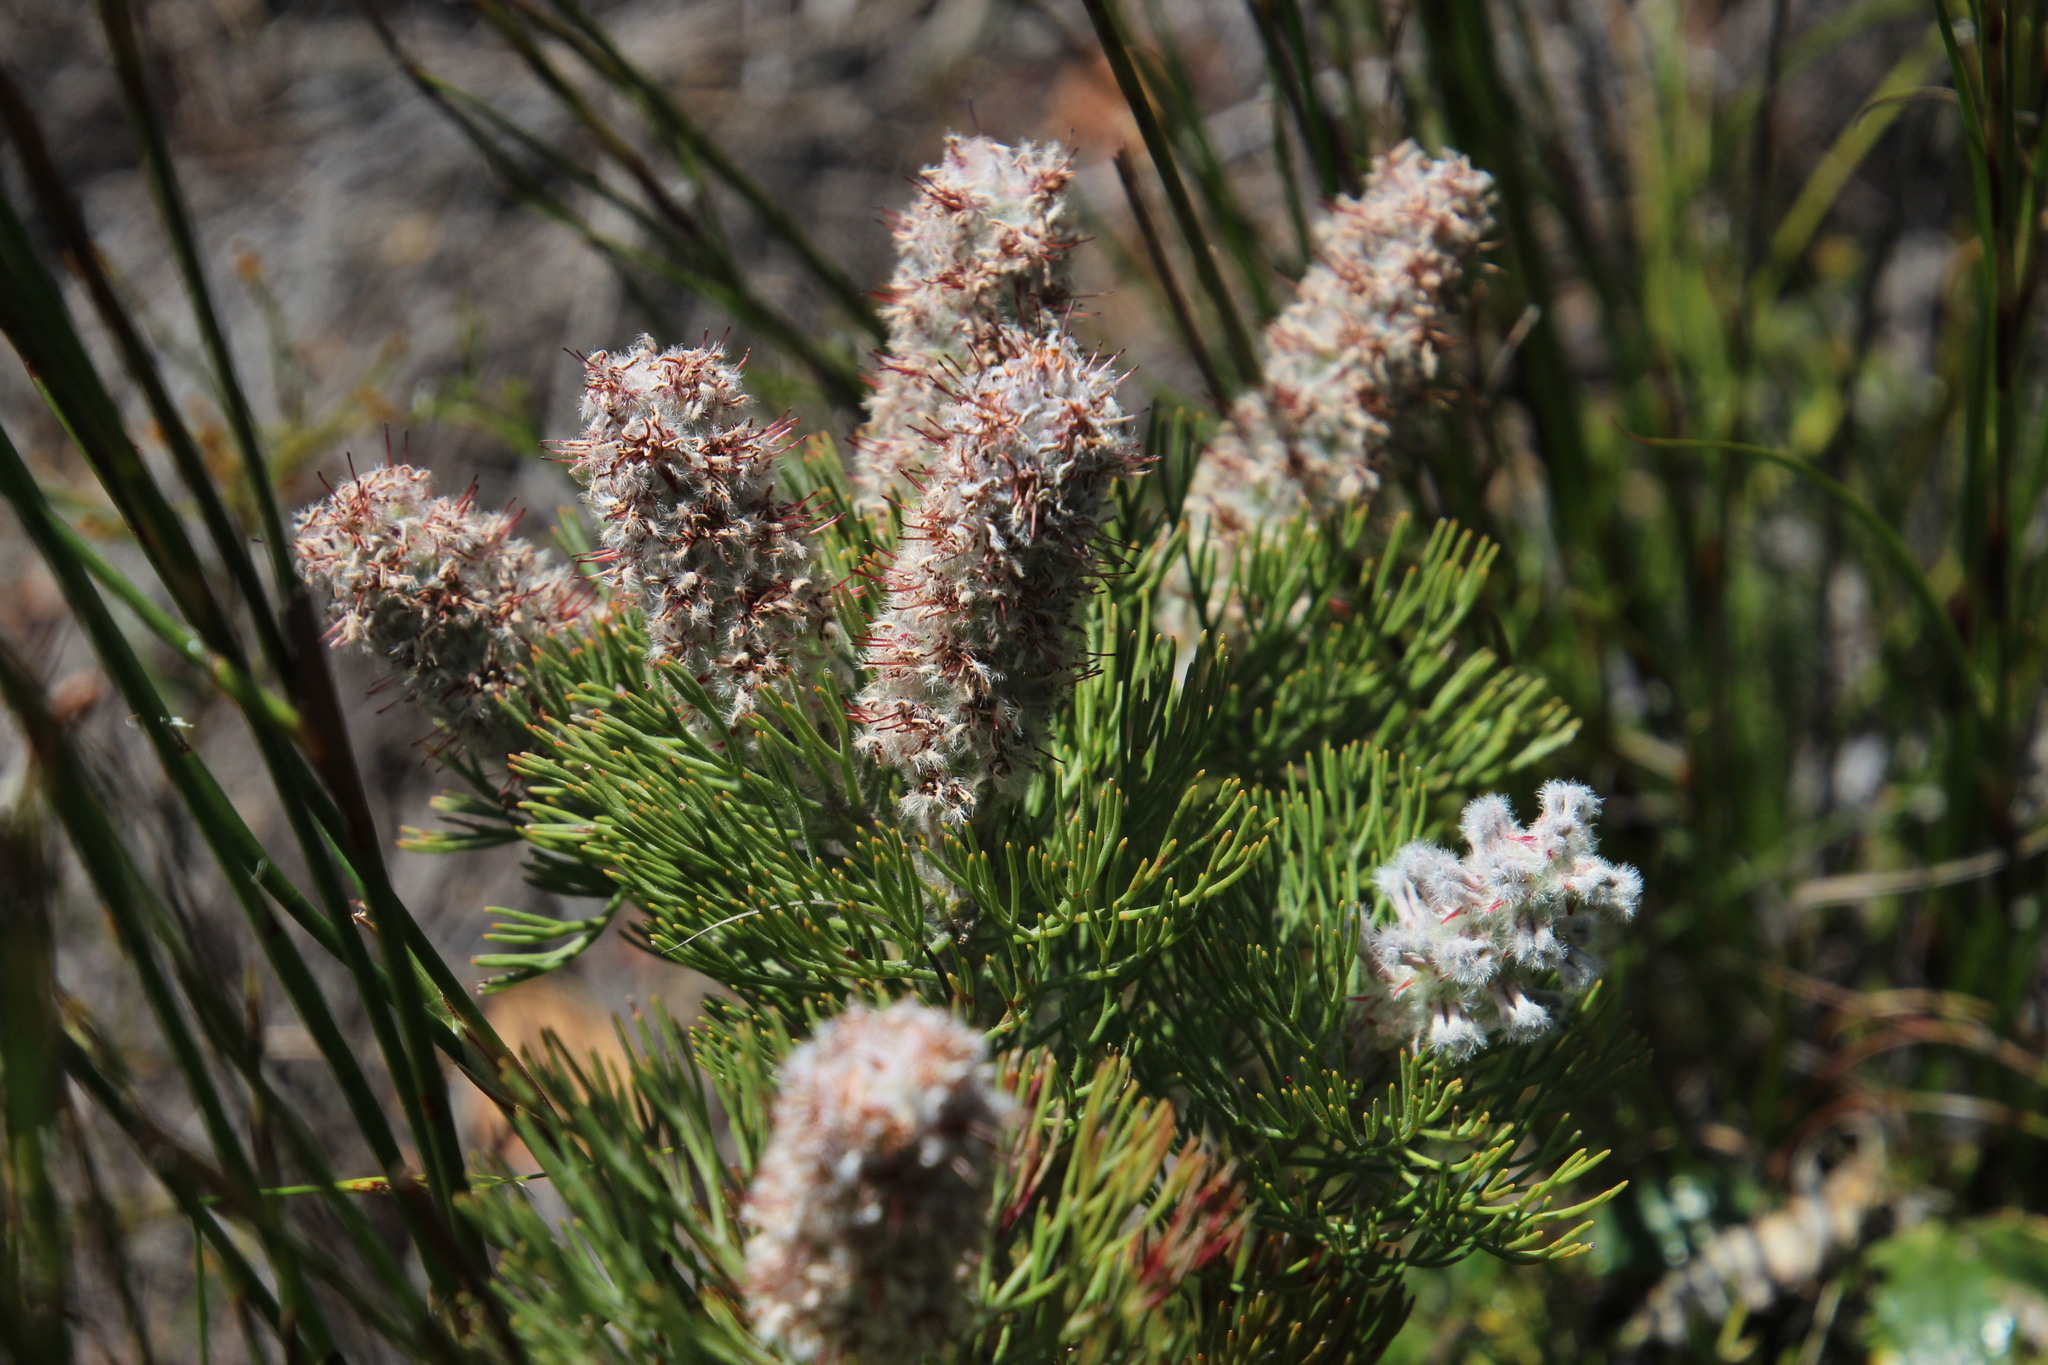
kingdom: Plantae
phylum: Tracheophyta
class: Magnoliopsida
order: Proteales
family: Proteaceae
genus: Paranomus
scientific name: Paranomus lagopus
